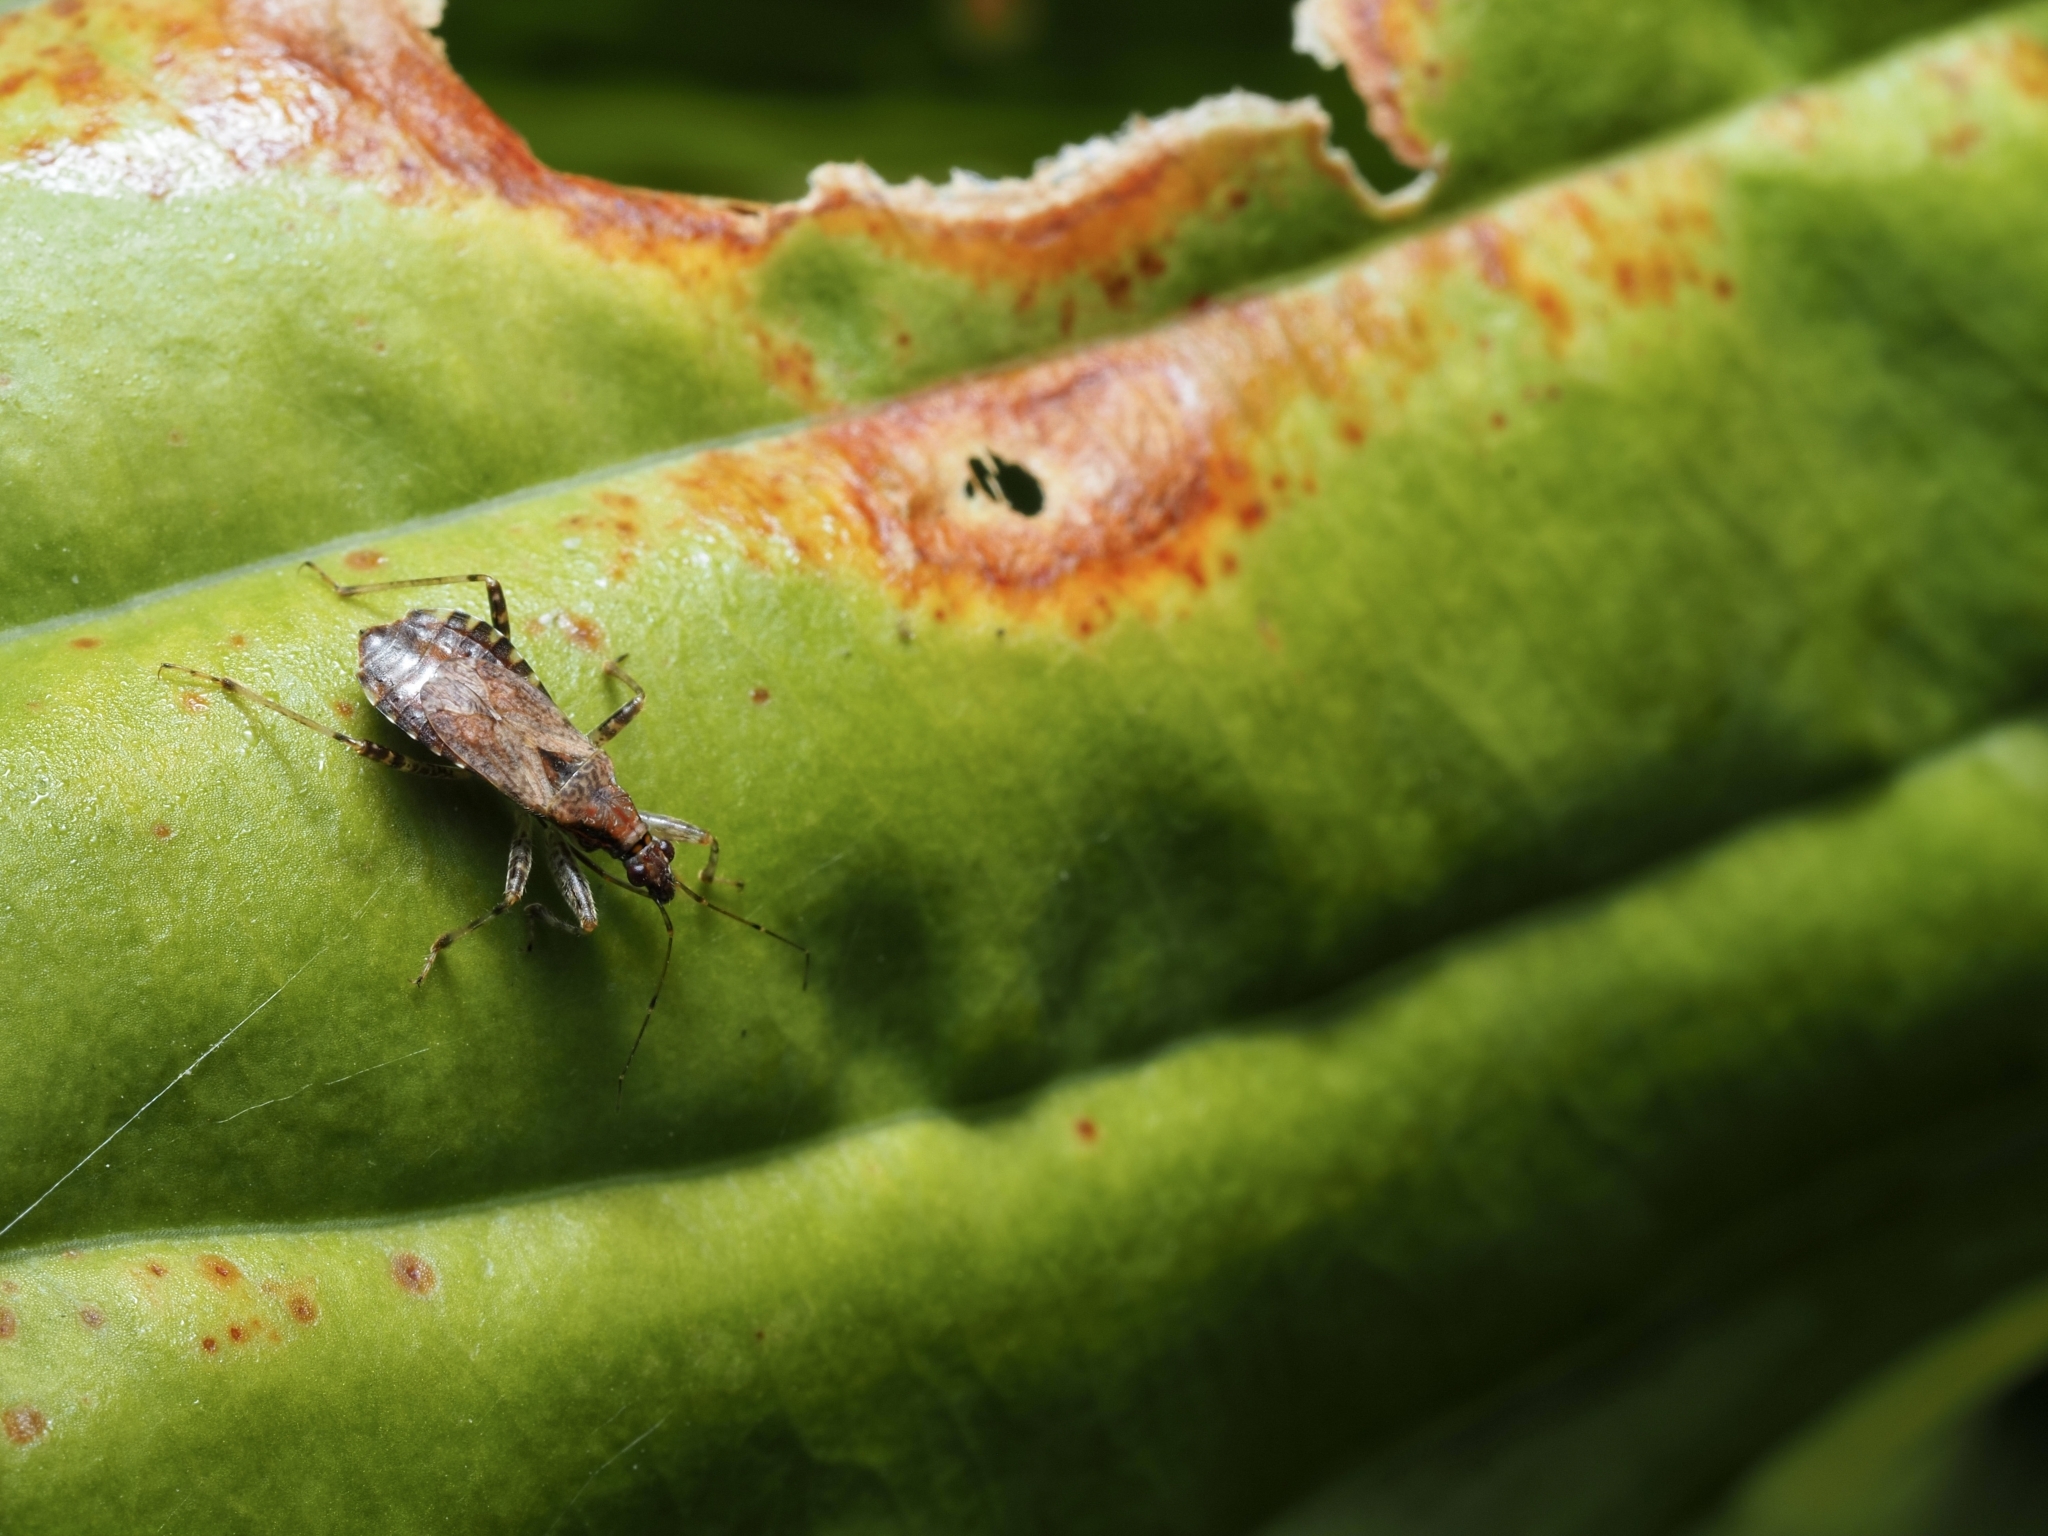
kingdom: Animalia
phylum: Arthropoda
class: Insecta
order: Hemiptera
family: Nabidae
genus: Himacerus
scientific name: Himacerus mirmicoides
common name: Ant damsel bug
